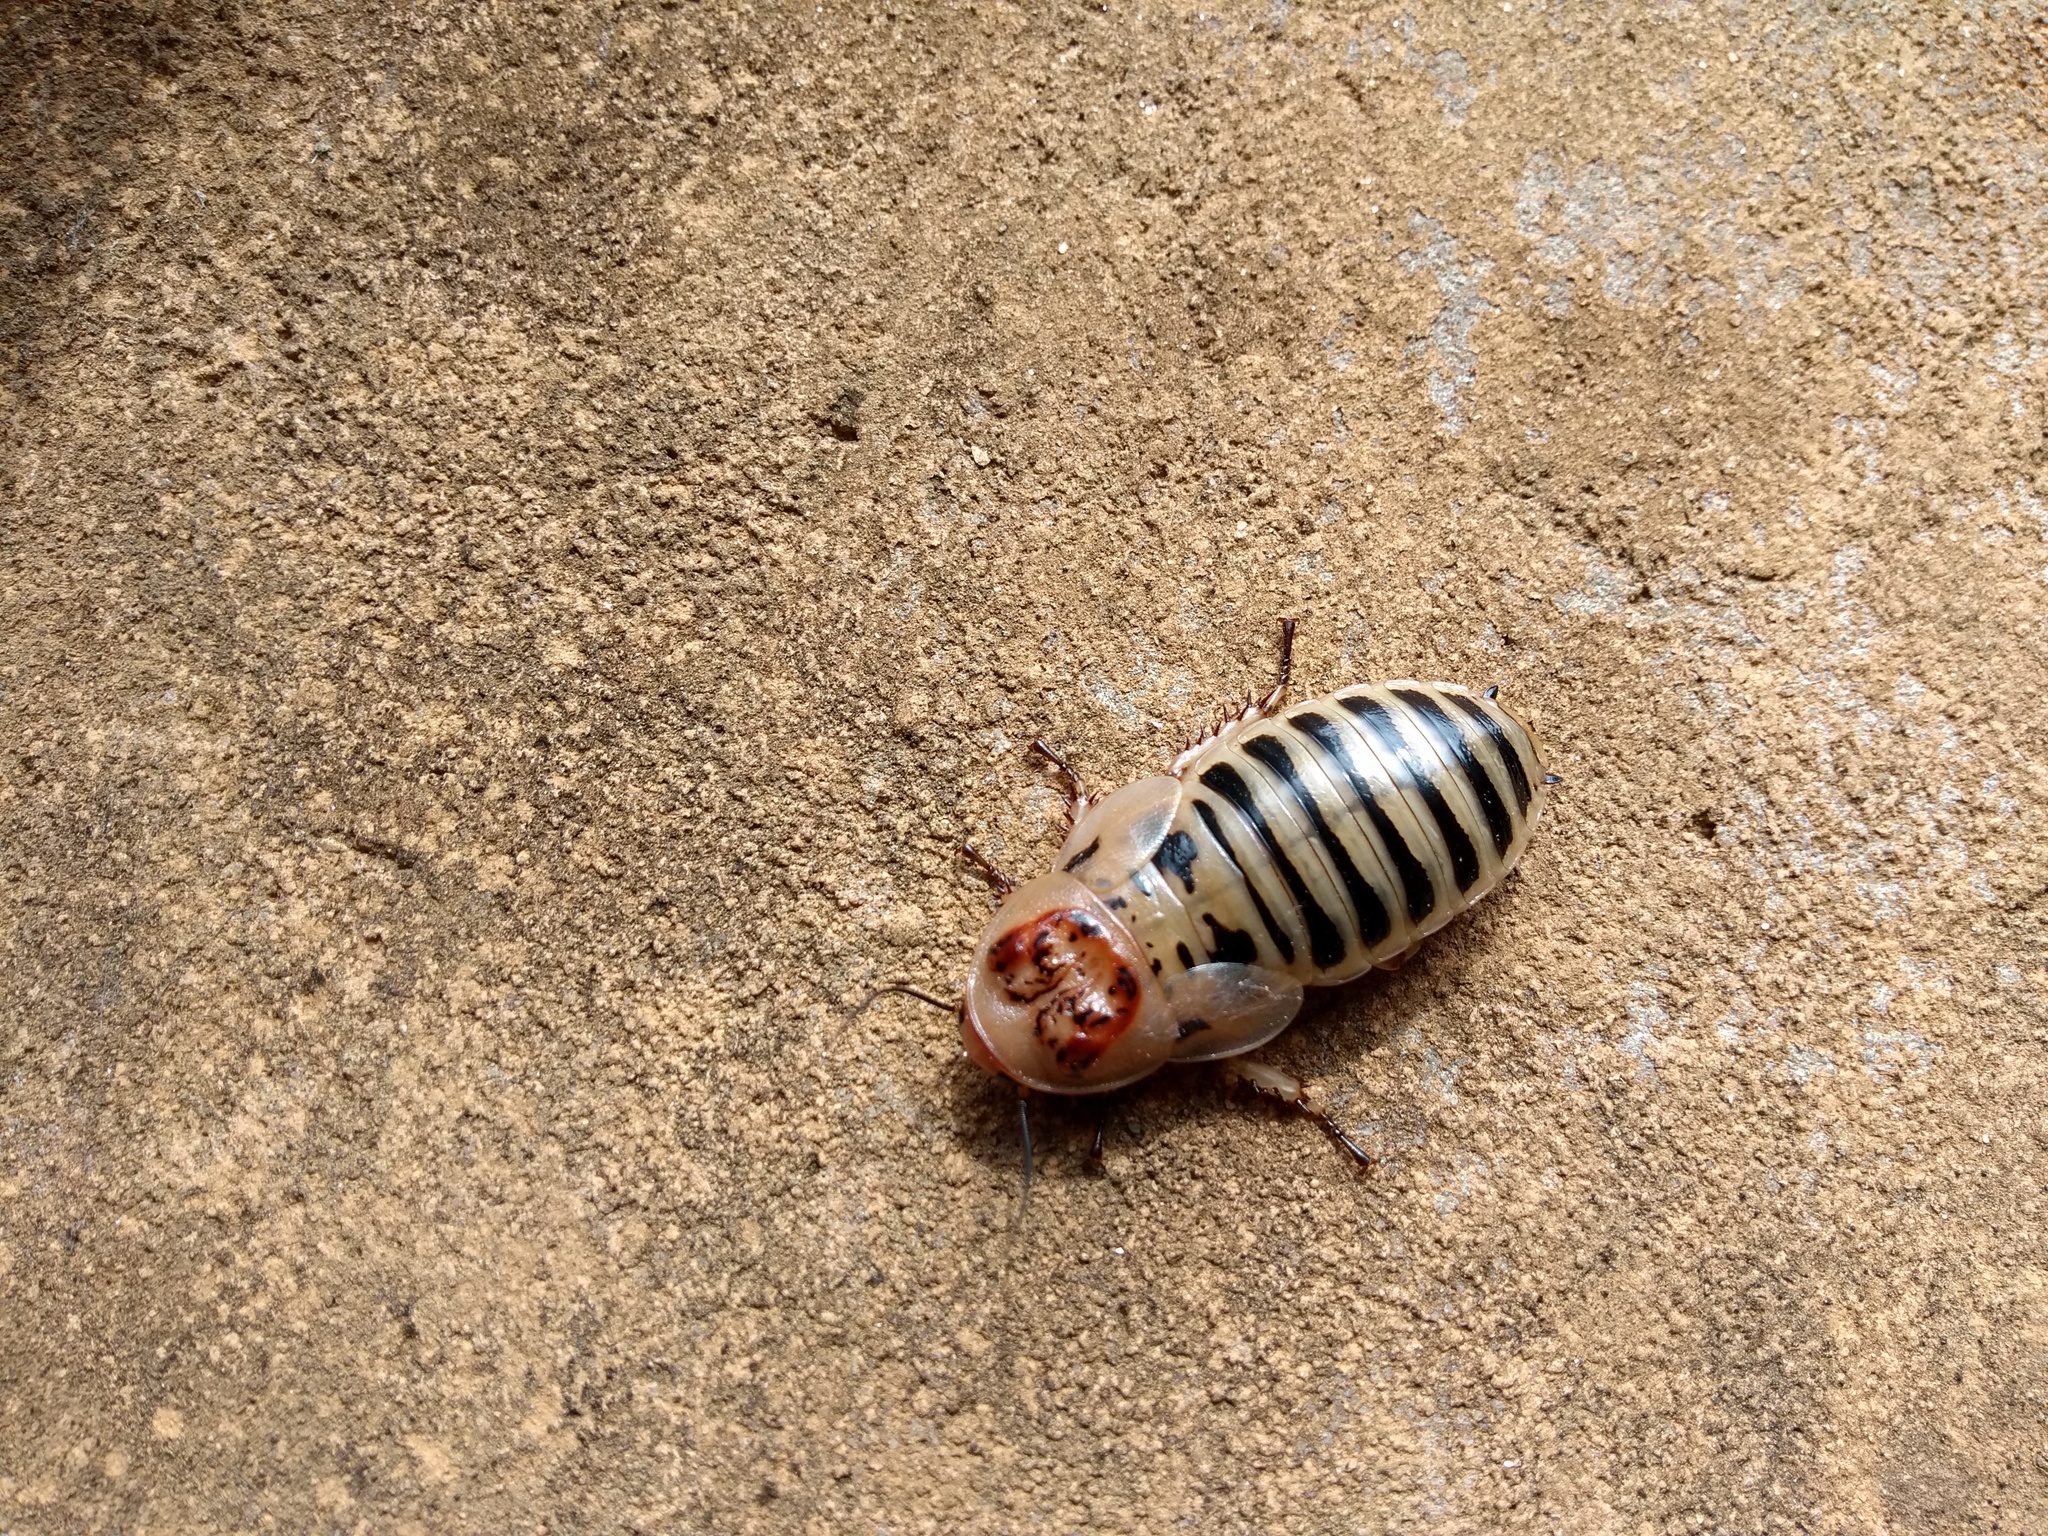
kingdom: Animalia
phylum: Arthropoda
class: Insecta
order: Blattodea
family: Blaberidae
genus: Parahormetica
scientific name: Parahormetica cicatricosa
